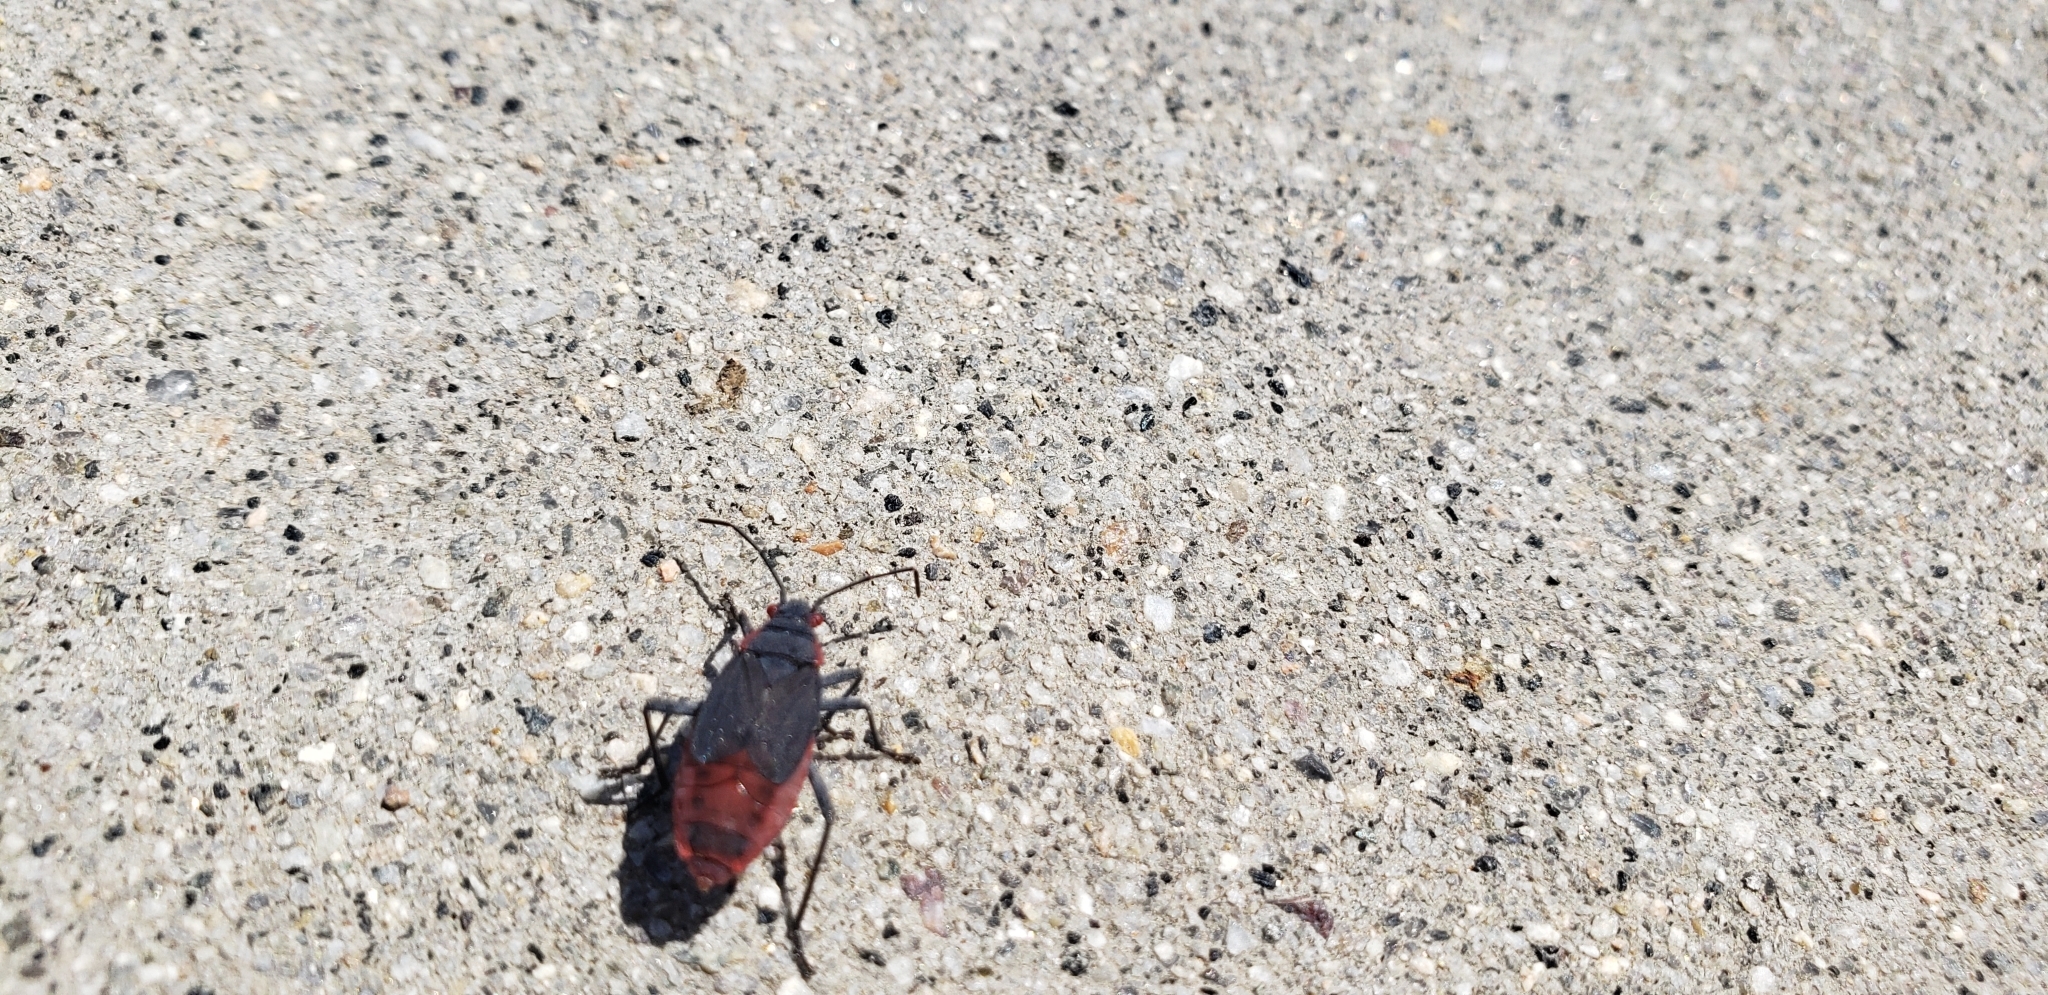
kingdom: Animalia
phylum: Arthropoda
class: Insecta
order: Hemiptera
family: Rhopalidae
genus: Jadera
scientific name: Jadera haematoloma
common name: Red-shouldered bug
